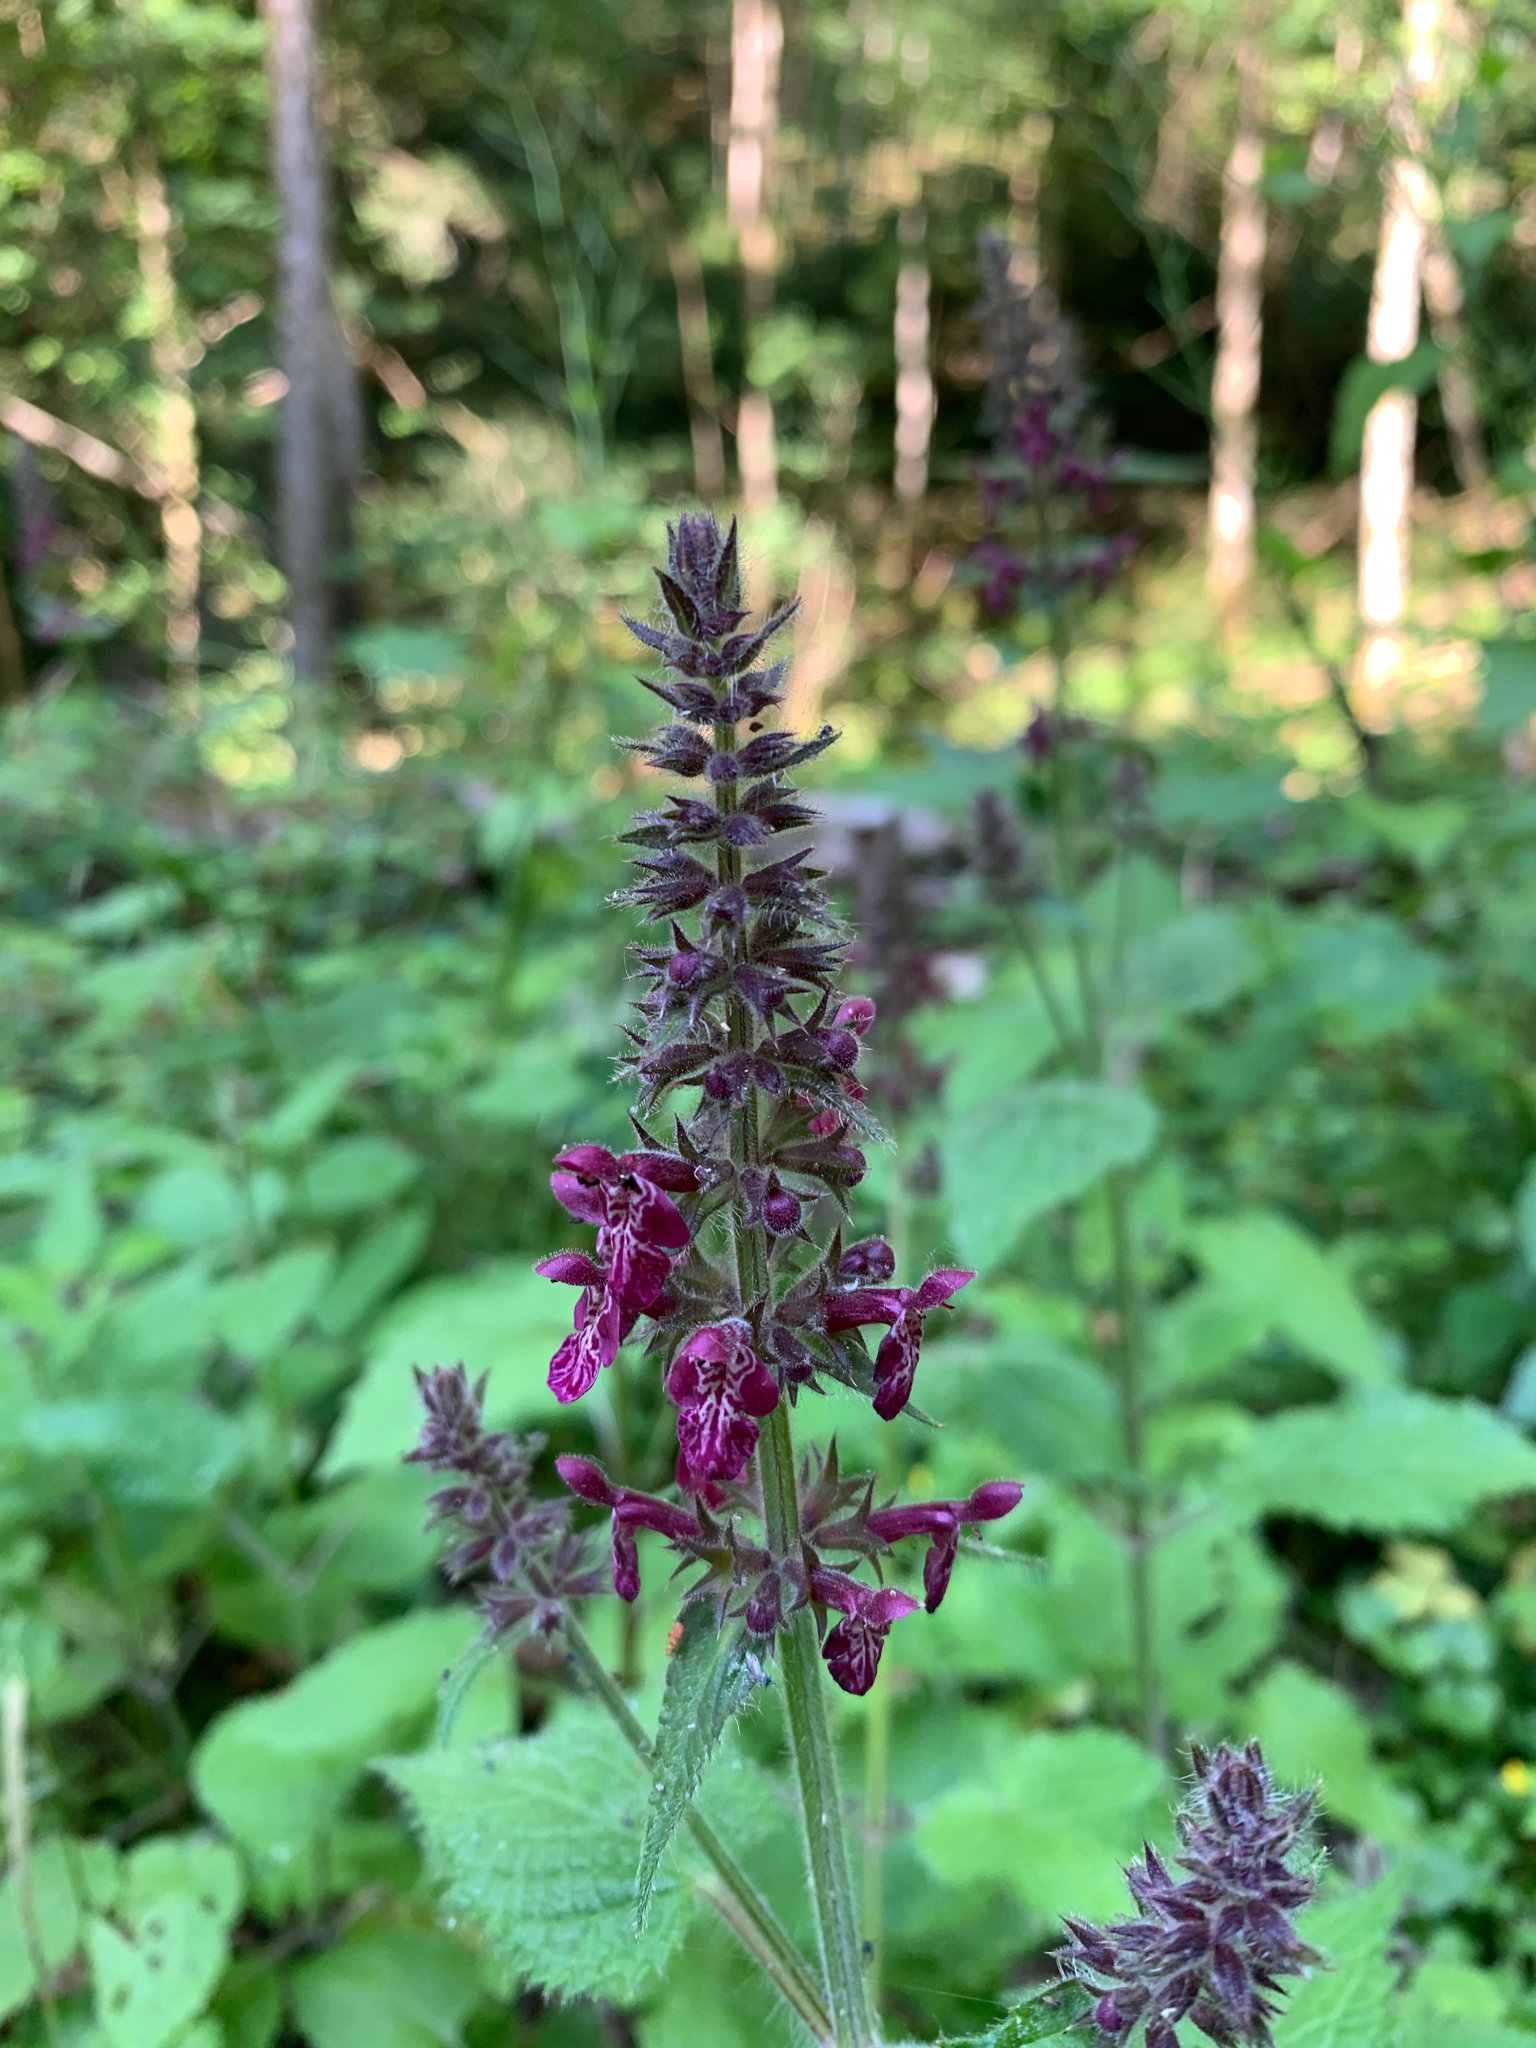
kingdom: Plantae
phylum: Tracheophyta
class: Magnoliopsida
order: Lamiales
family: Lamiaceae
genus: Stachys
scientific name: Stachys sylvatica
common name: Hedge woundwort
